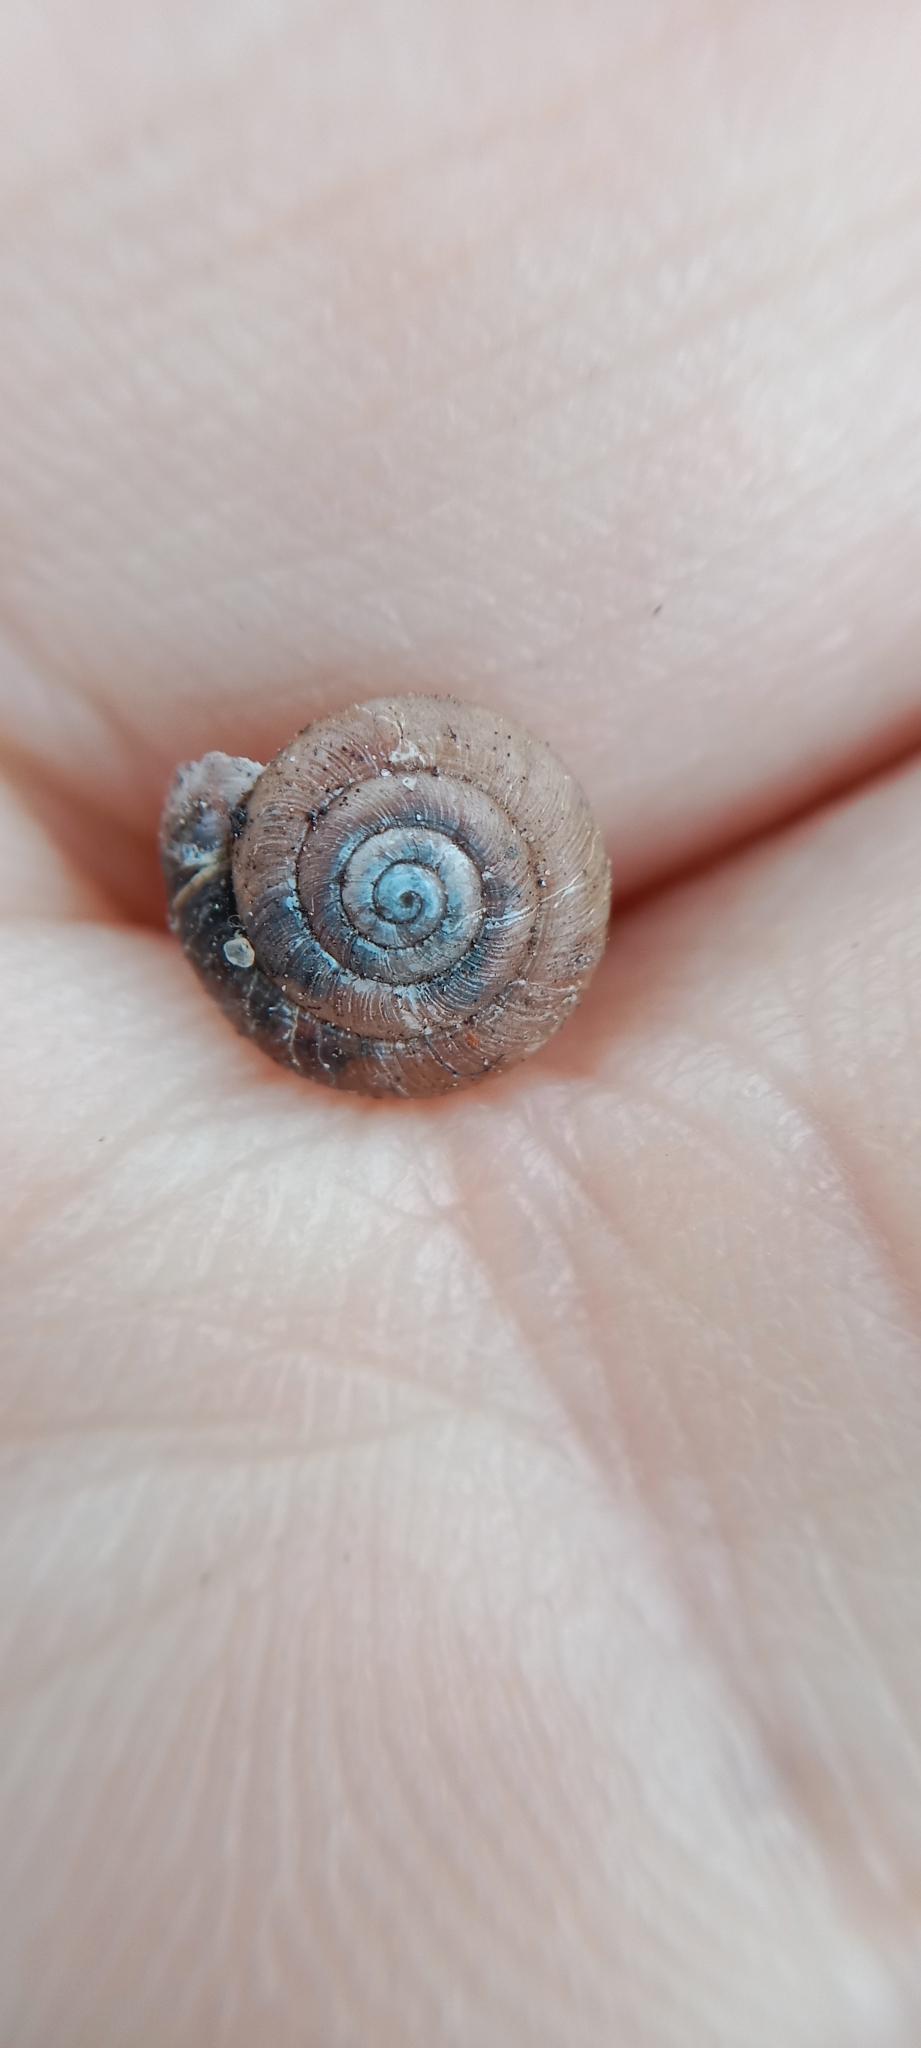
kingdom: Animalia
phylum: Mollusca
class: Gastropoda
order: Stylommatophora
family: Hygromiidae
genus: Trochulus
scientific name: Trochulus hispidus
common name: Hairy snail
